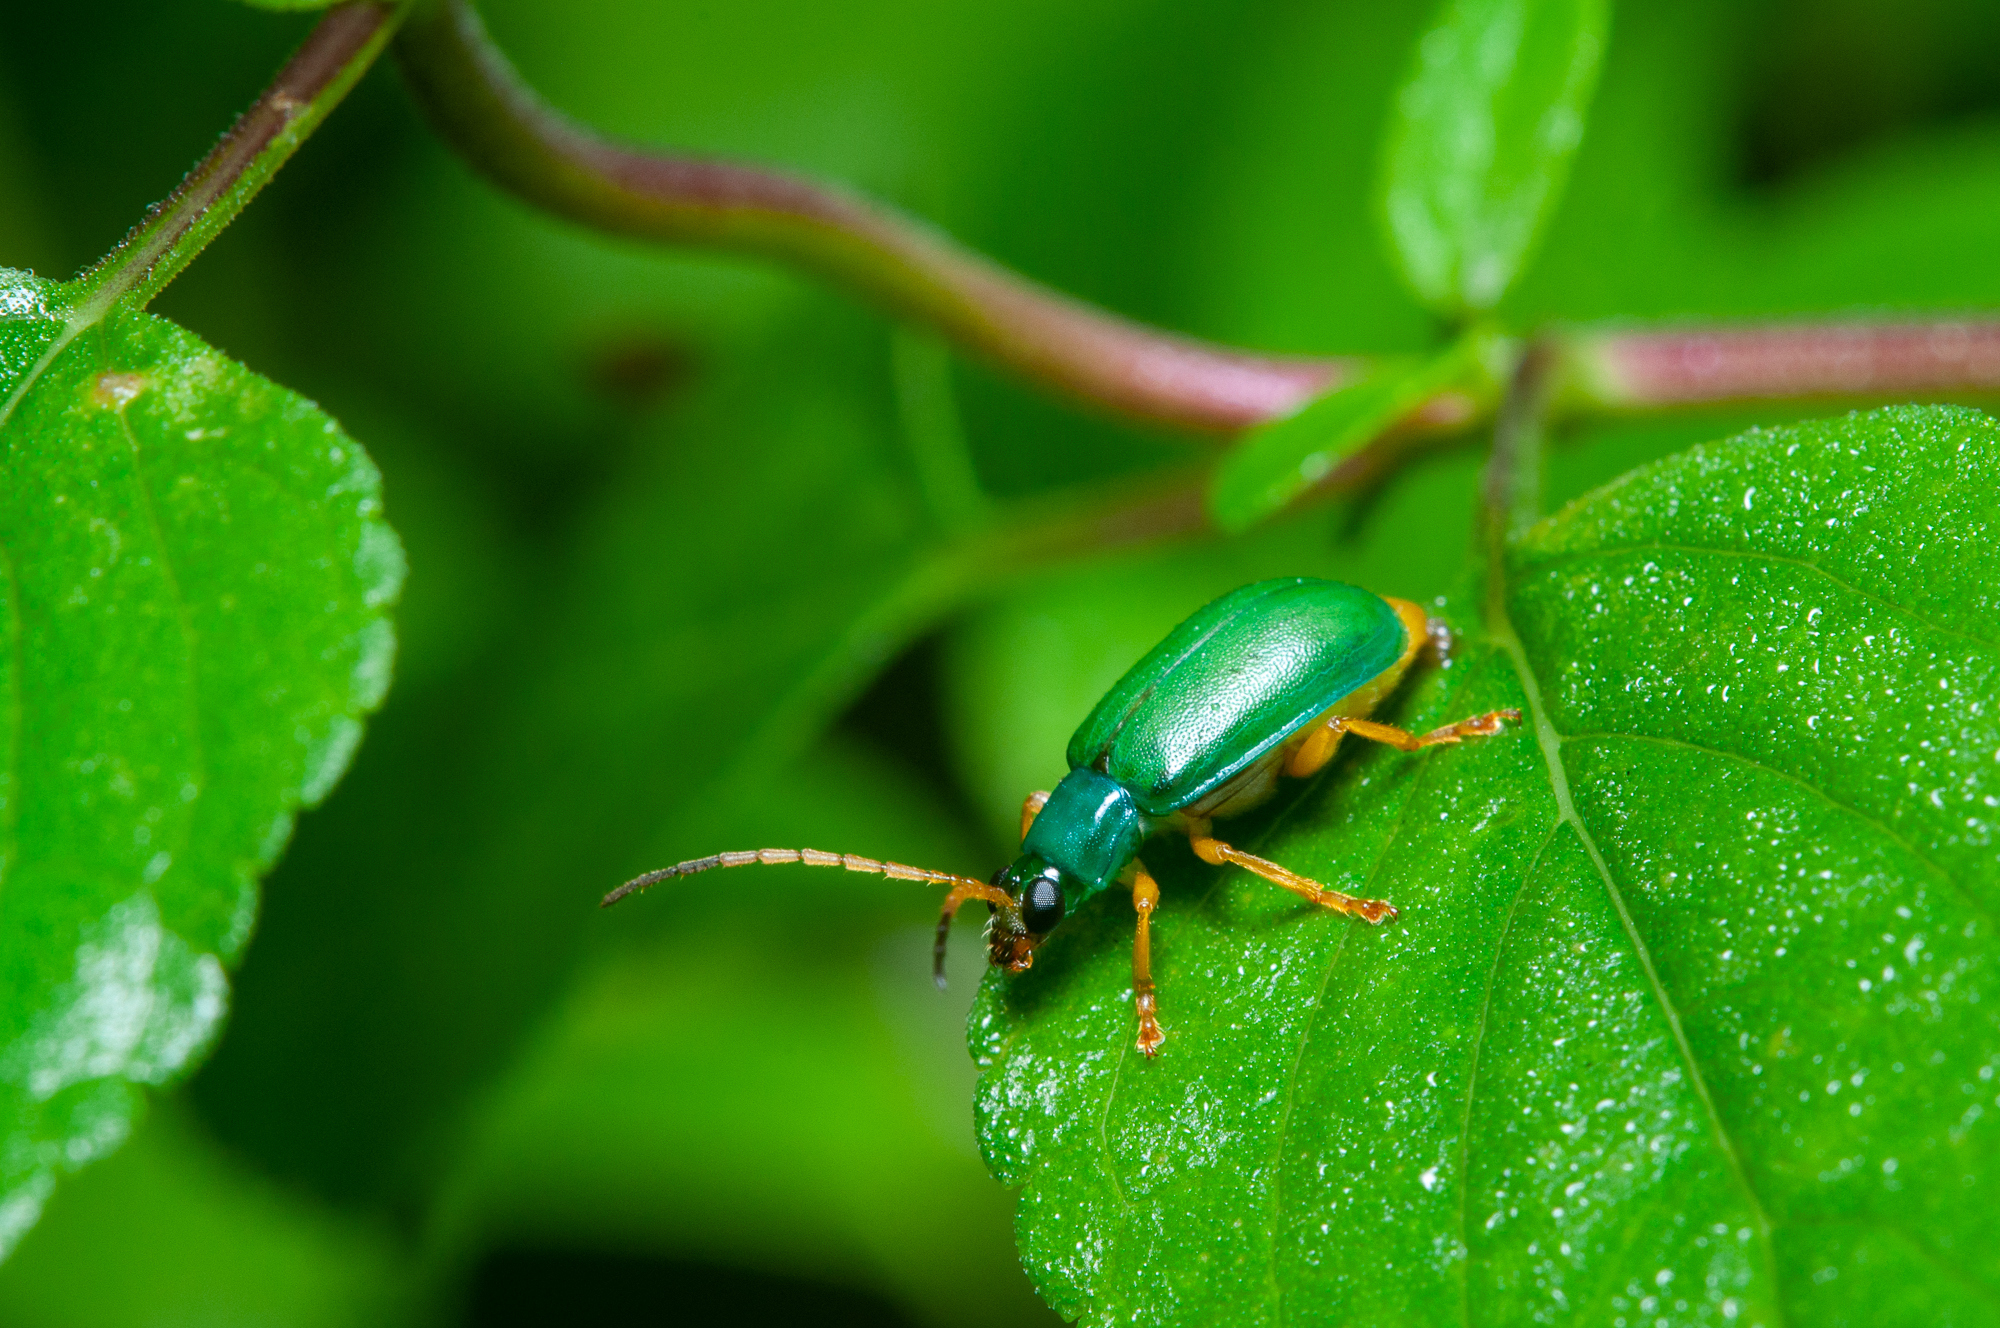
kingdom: Animalia
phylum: Arthropoda
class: Insecta
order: Coleoptera
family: Chrysomelidae
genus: Diabrotica
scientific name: Diabrotica
